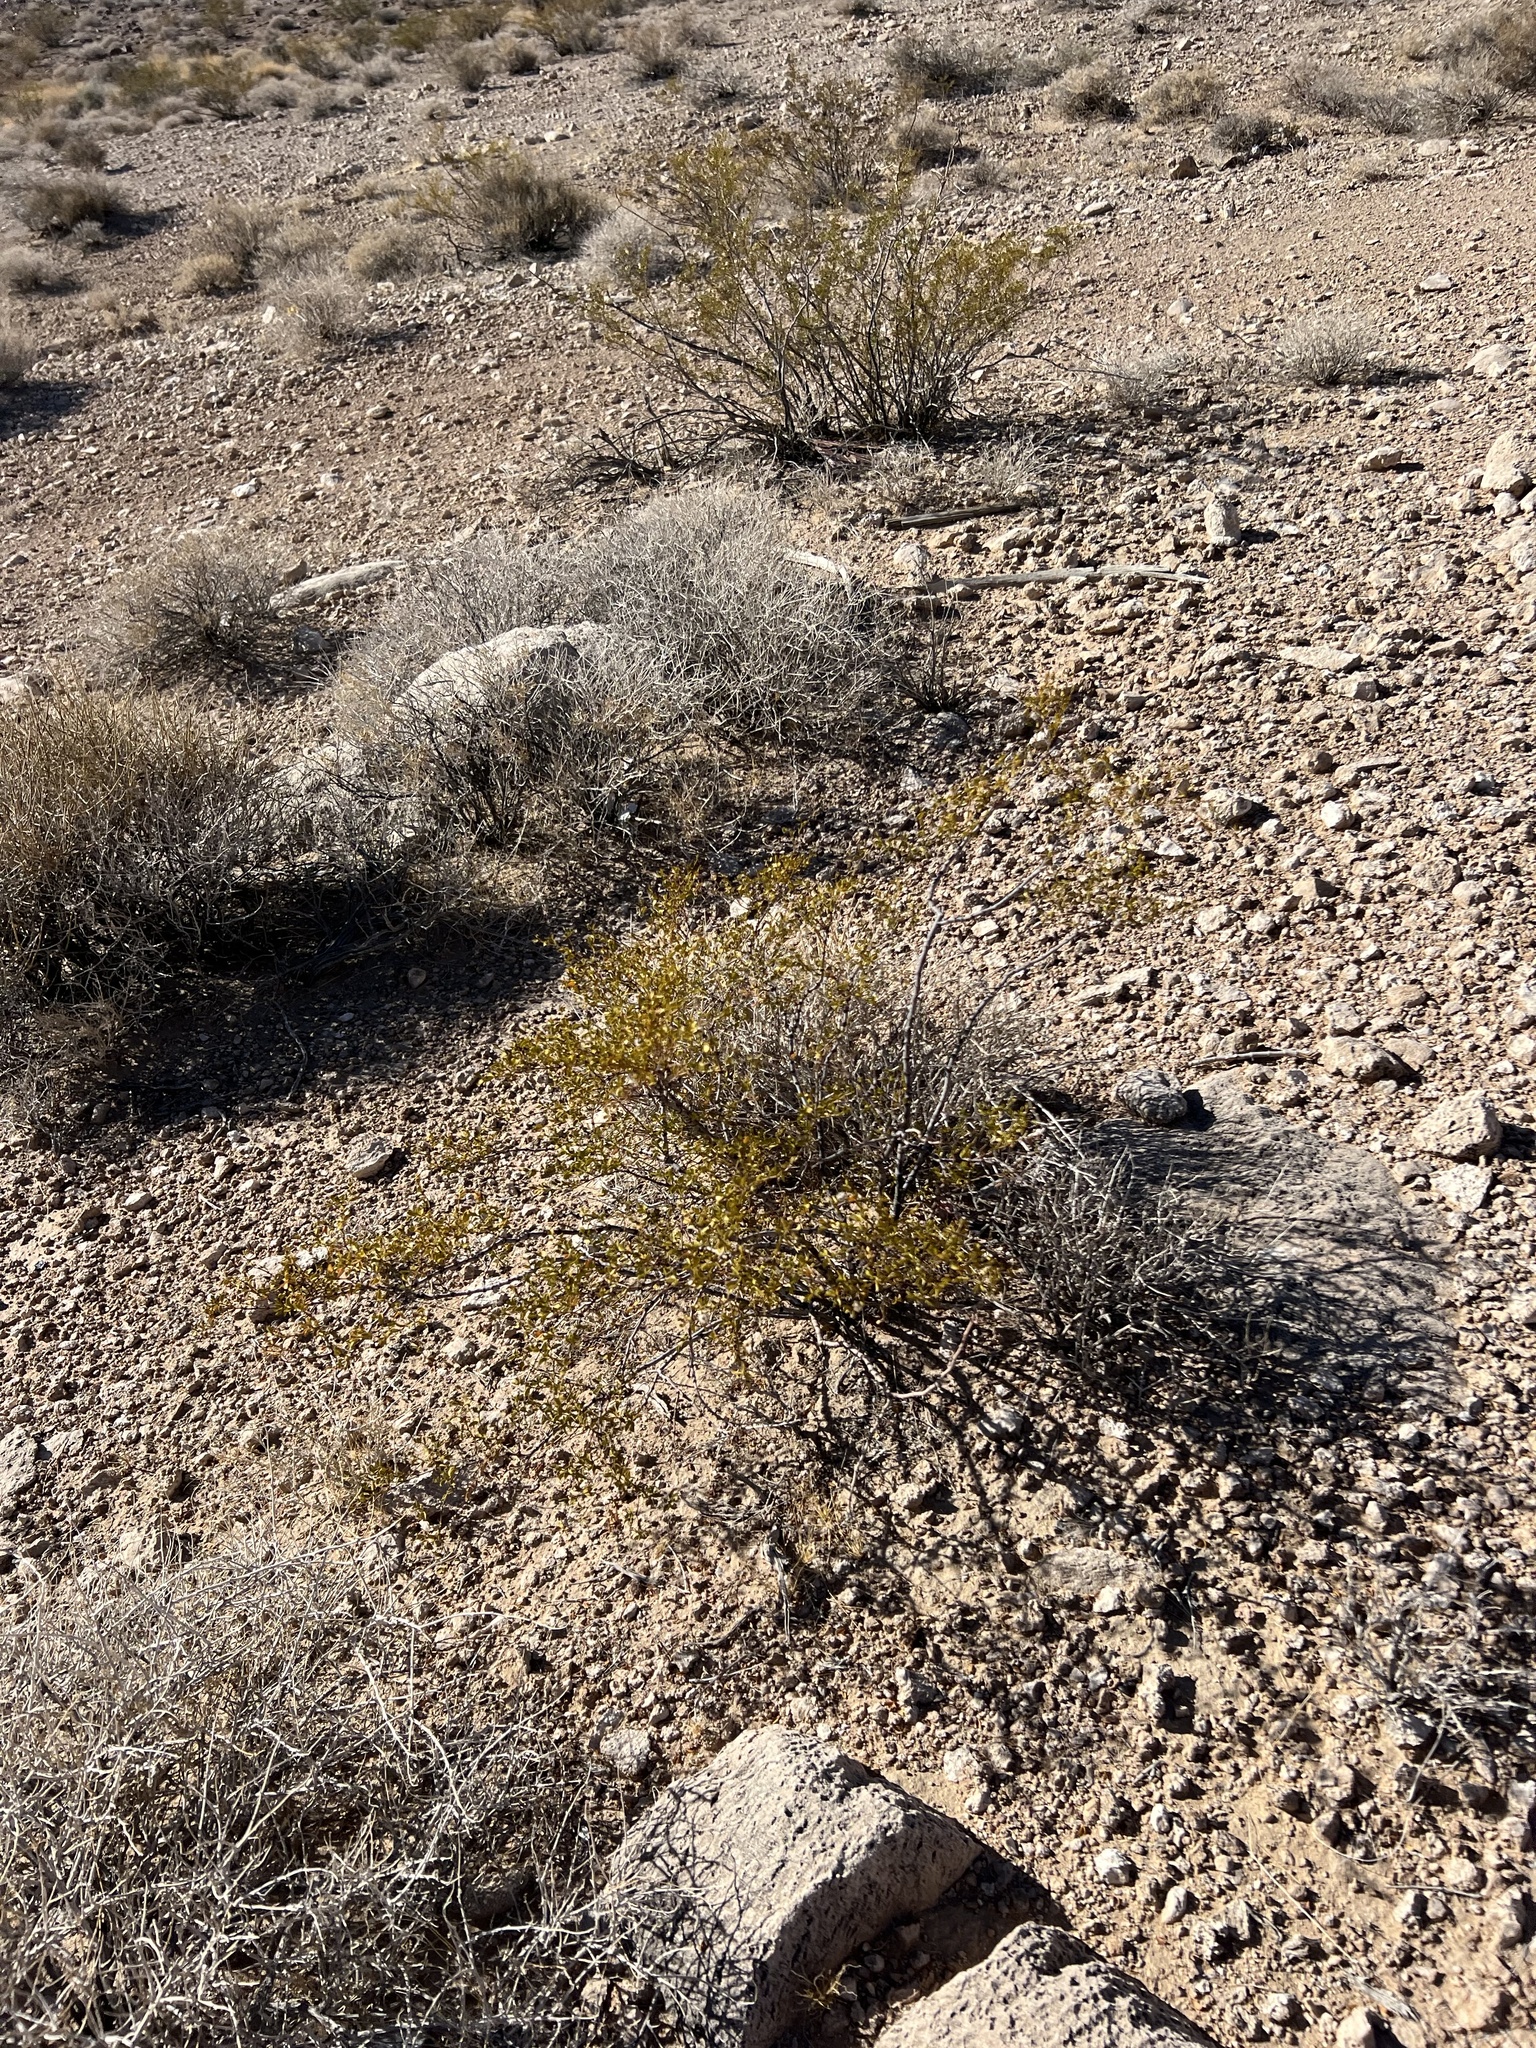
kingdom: Plantae
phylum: Tracheophyta
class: Magnoliopsida
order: Zygophyllales
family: Zygophyllaceae
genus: Larrea
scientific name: Larrea tridentata
